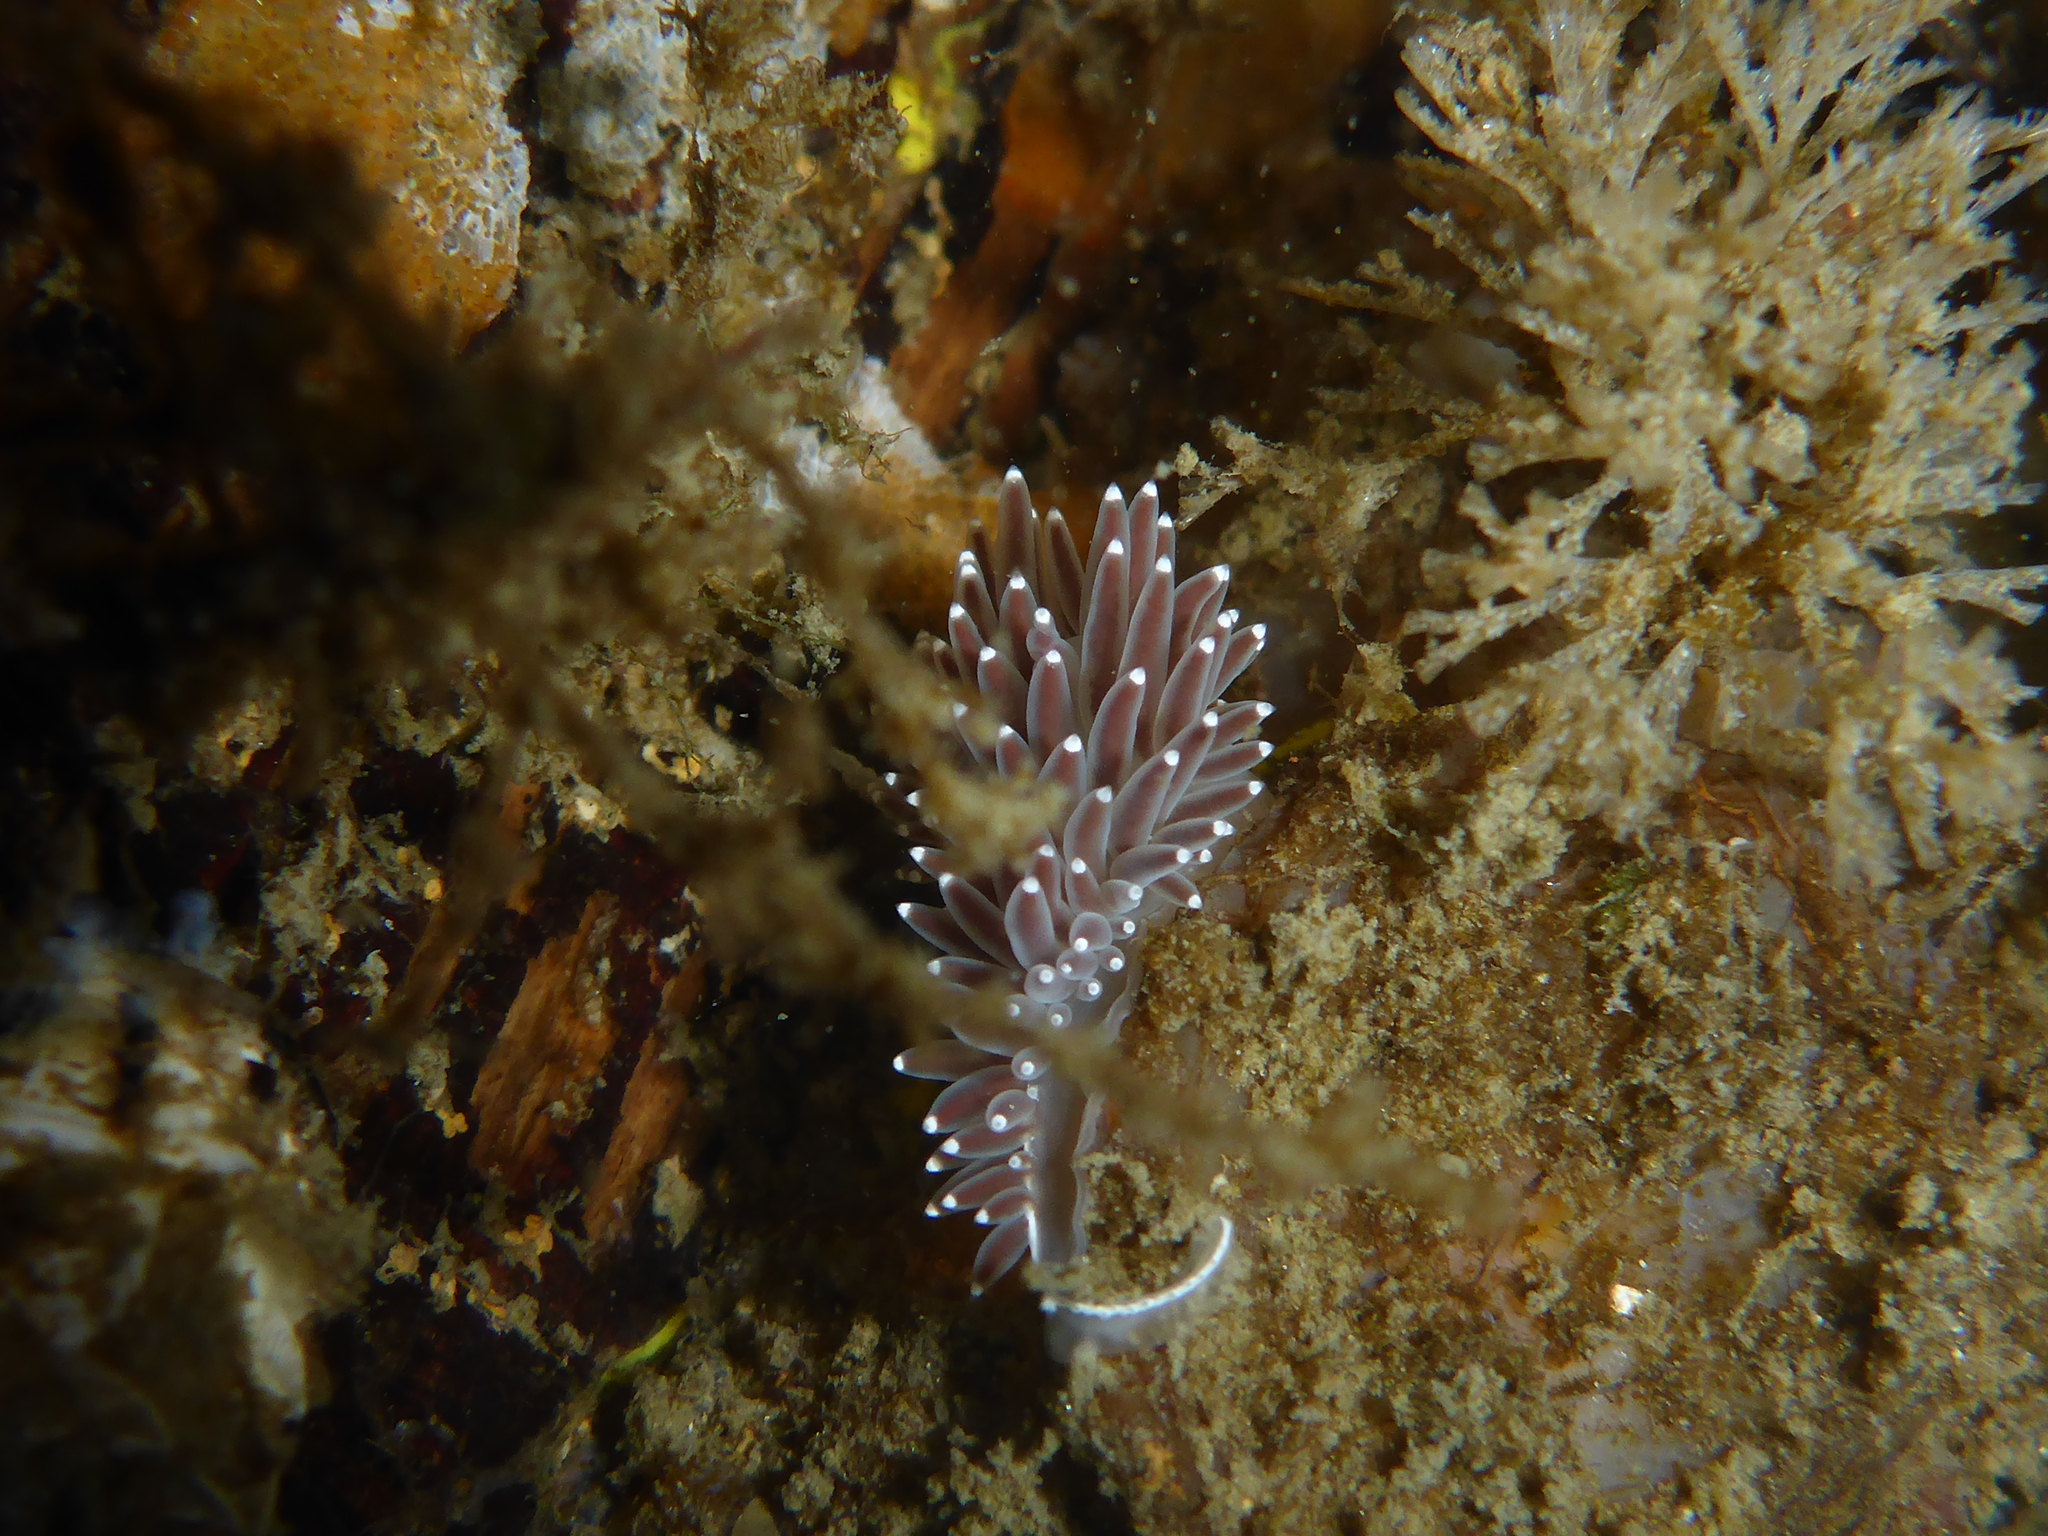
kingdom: Animalia
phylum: Mollusca
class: Gastropoda
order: Nudibranchia
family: Coryphellidae
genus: Coryphella
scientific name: Coryphella verrucosa
